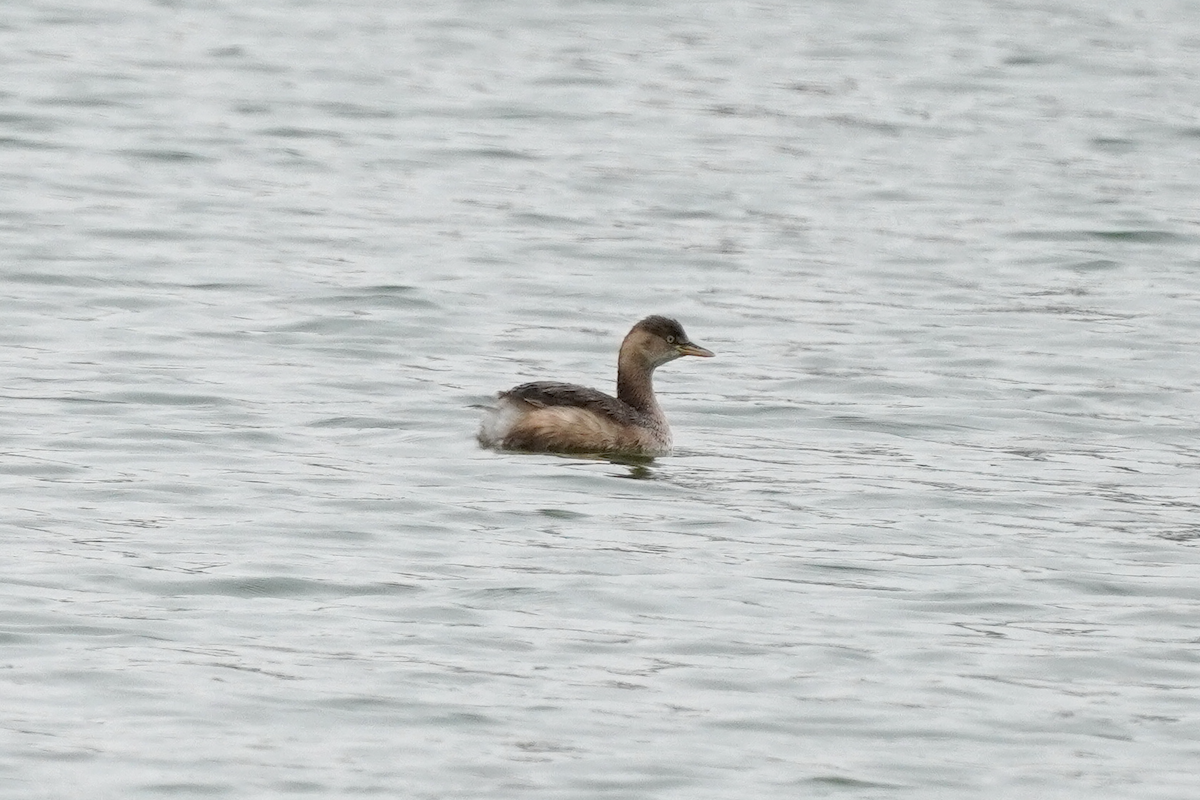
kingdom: Animalia
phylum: Chordata
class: Aves
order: Podicipediformes
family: Podicipedidae
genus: Tachybaptus
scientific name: Tachybaptus ruficollis
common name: Little grebe
